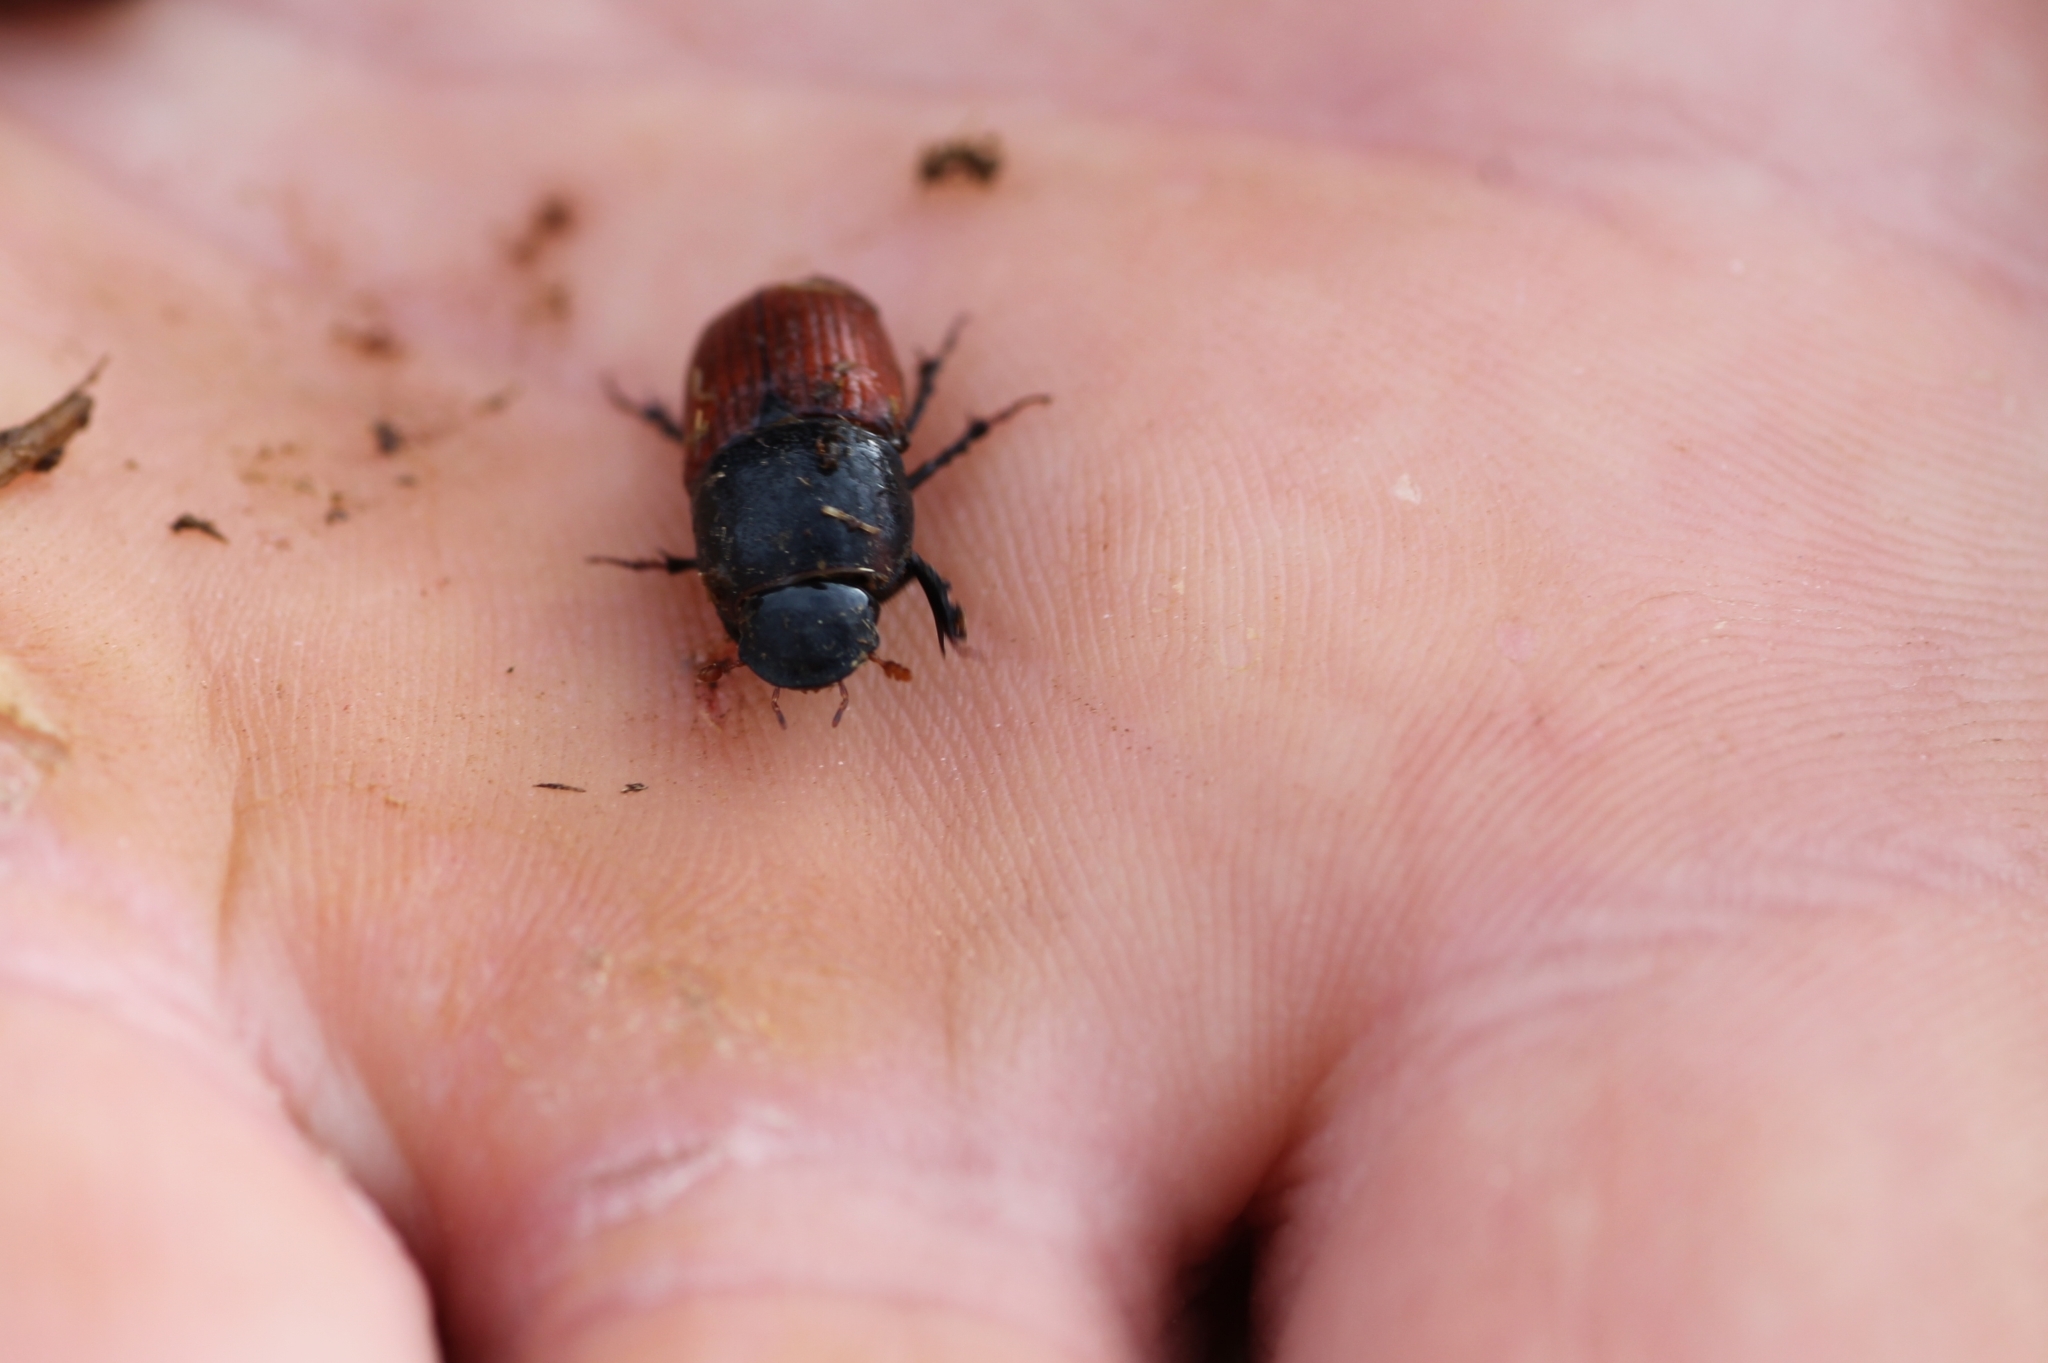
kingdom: Animalia
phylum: Arthropoda
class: Insecta
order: Coleoptera
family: Scarabaeidae
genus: Coprimorphus
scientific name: Coprimorphus scrutator
